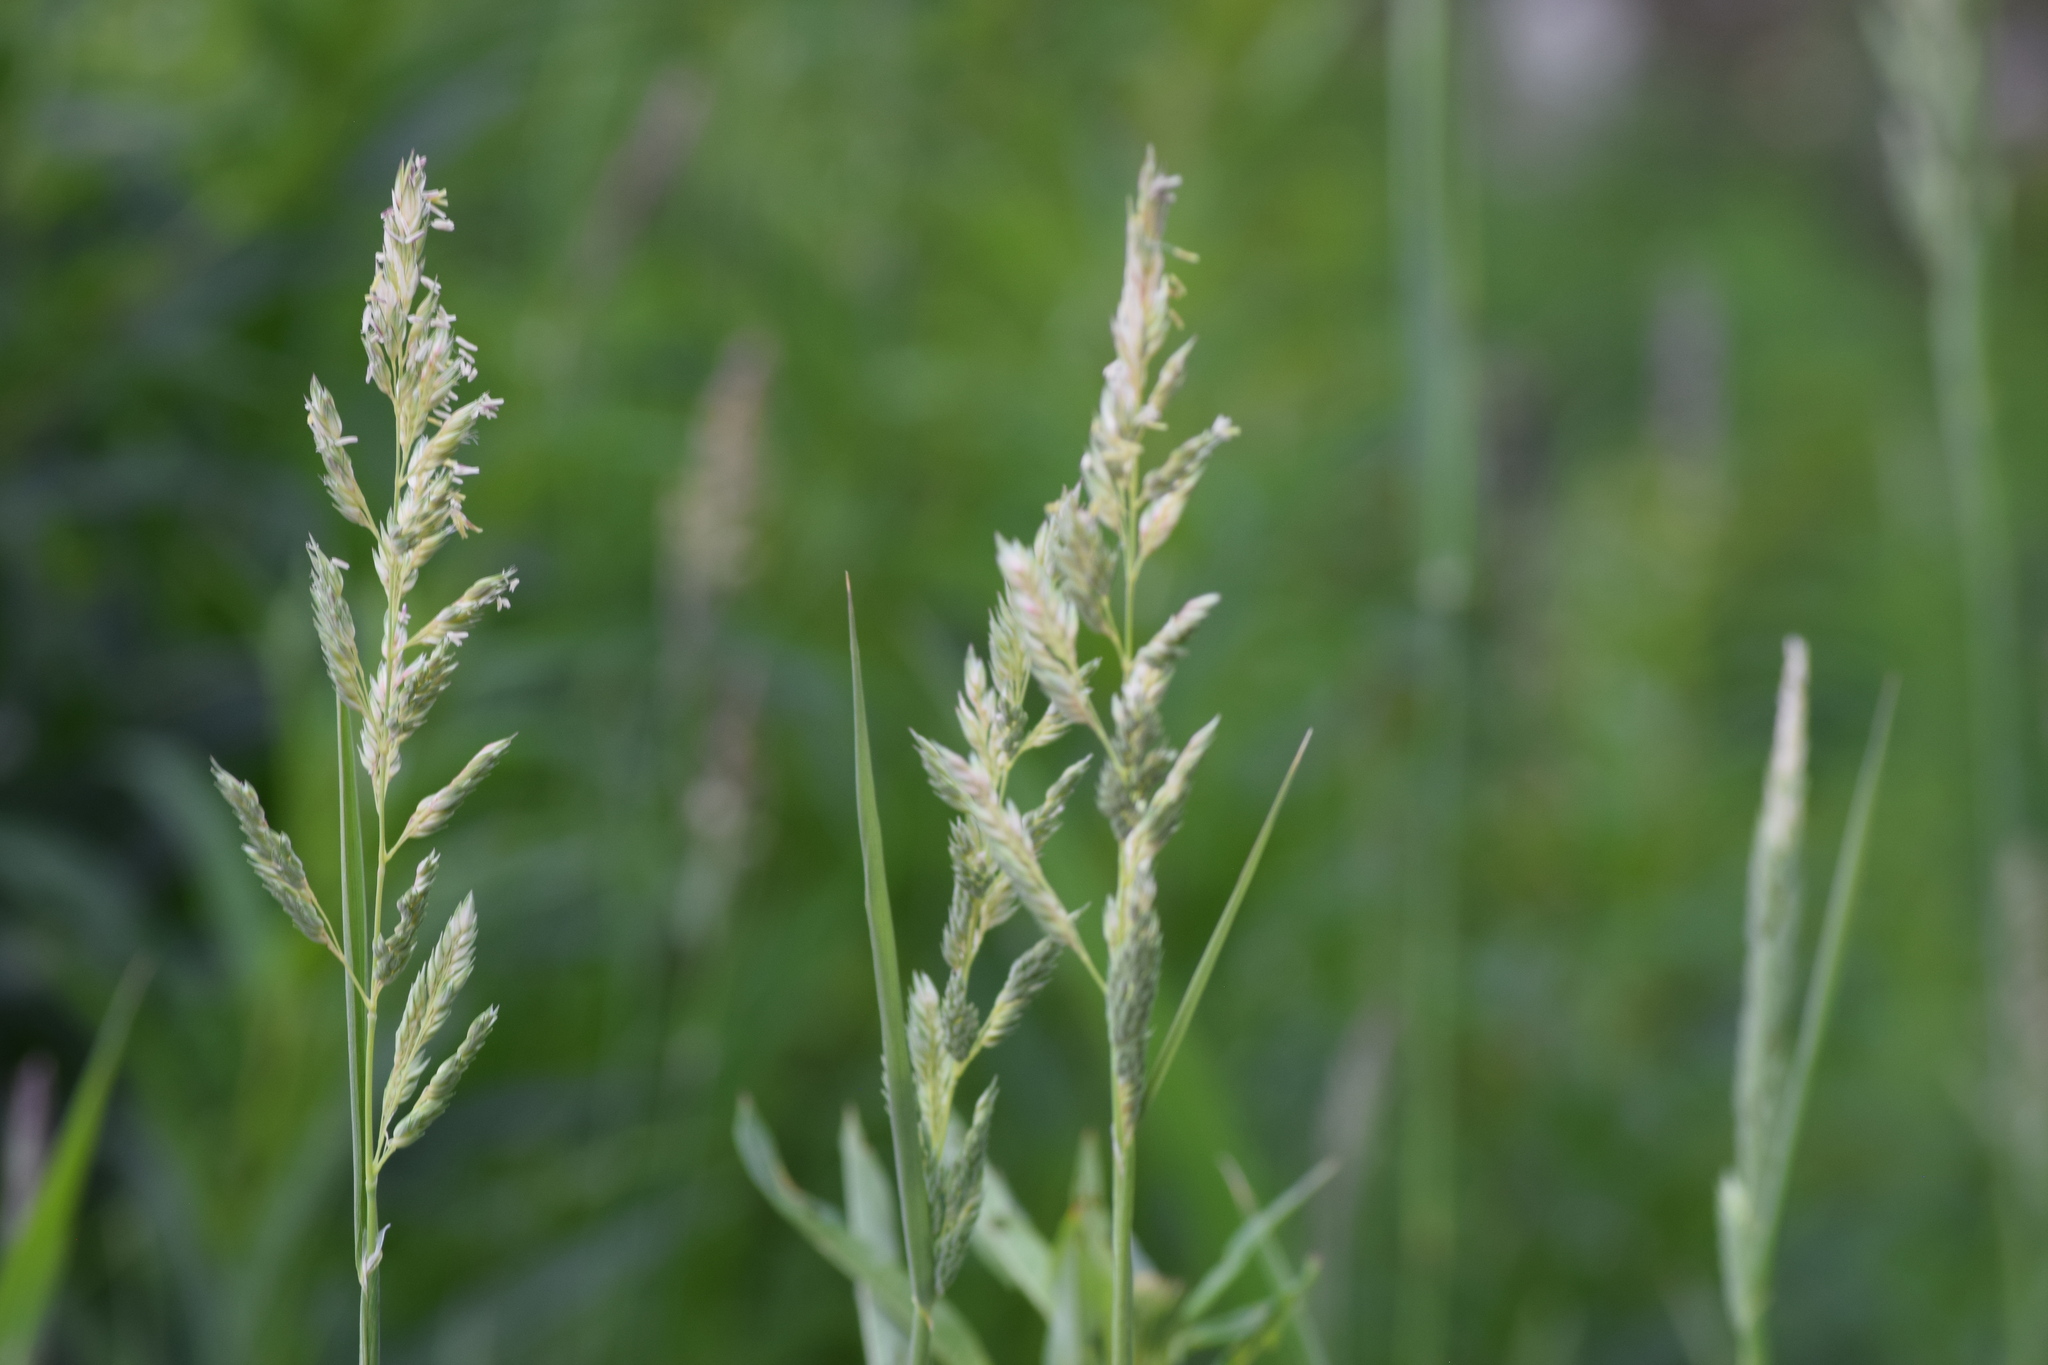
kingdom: Plantae
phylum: Tracheophyta
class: Liliopsida
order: Poales
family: Poaceae
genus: Phalaris
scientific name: Phalaris arundinacea
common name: Reed canary-grass
